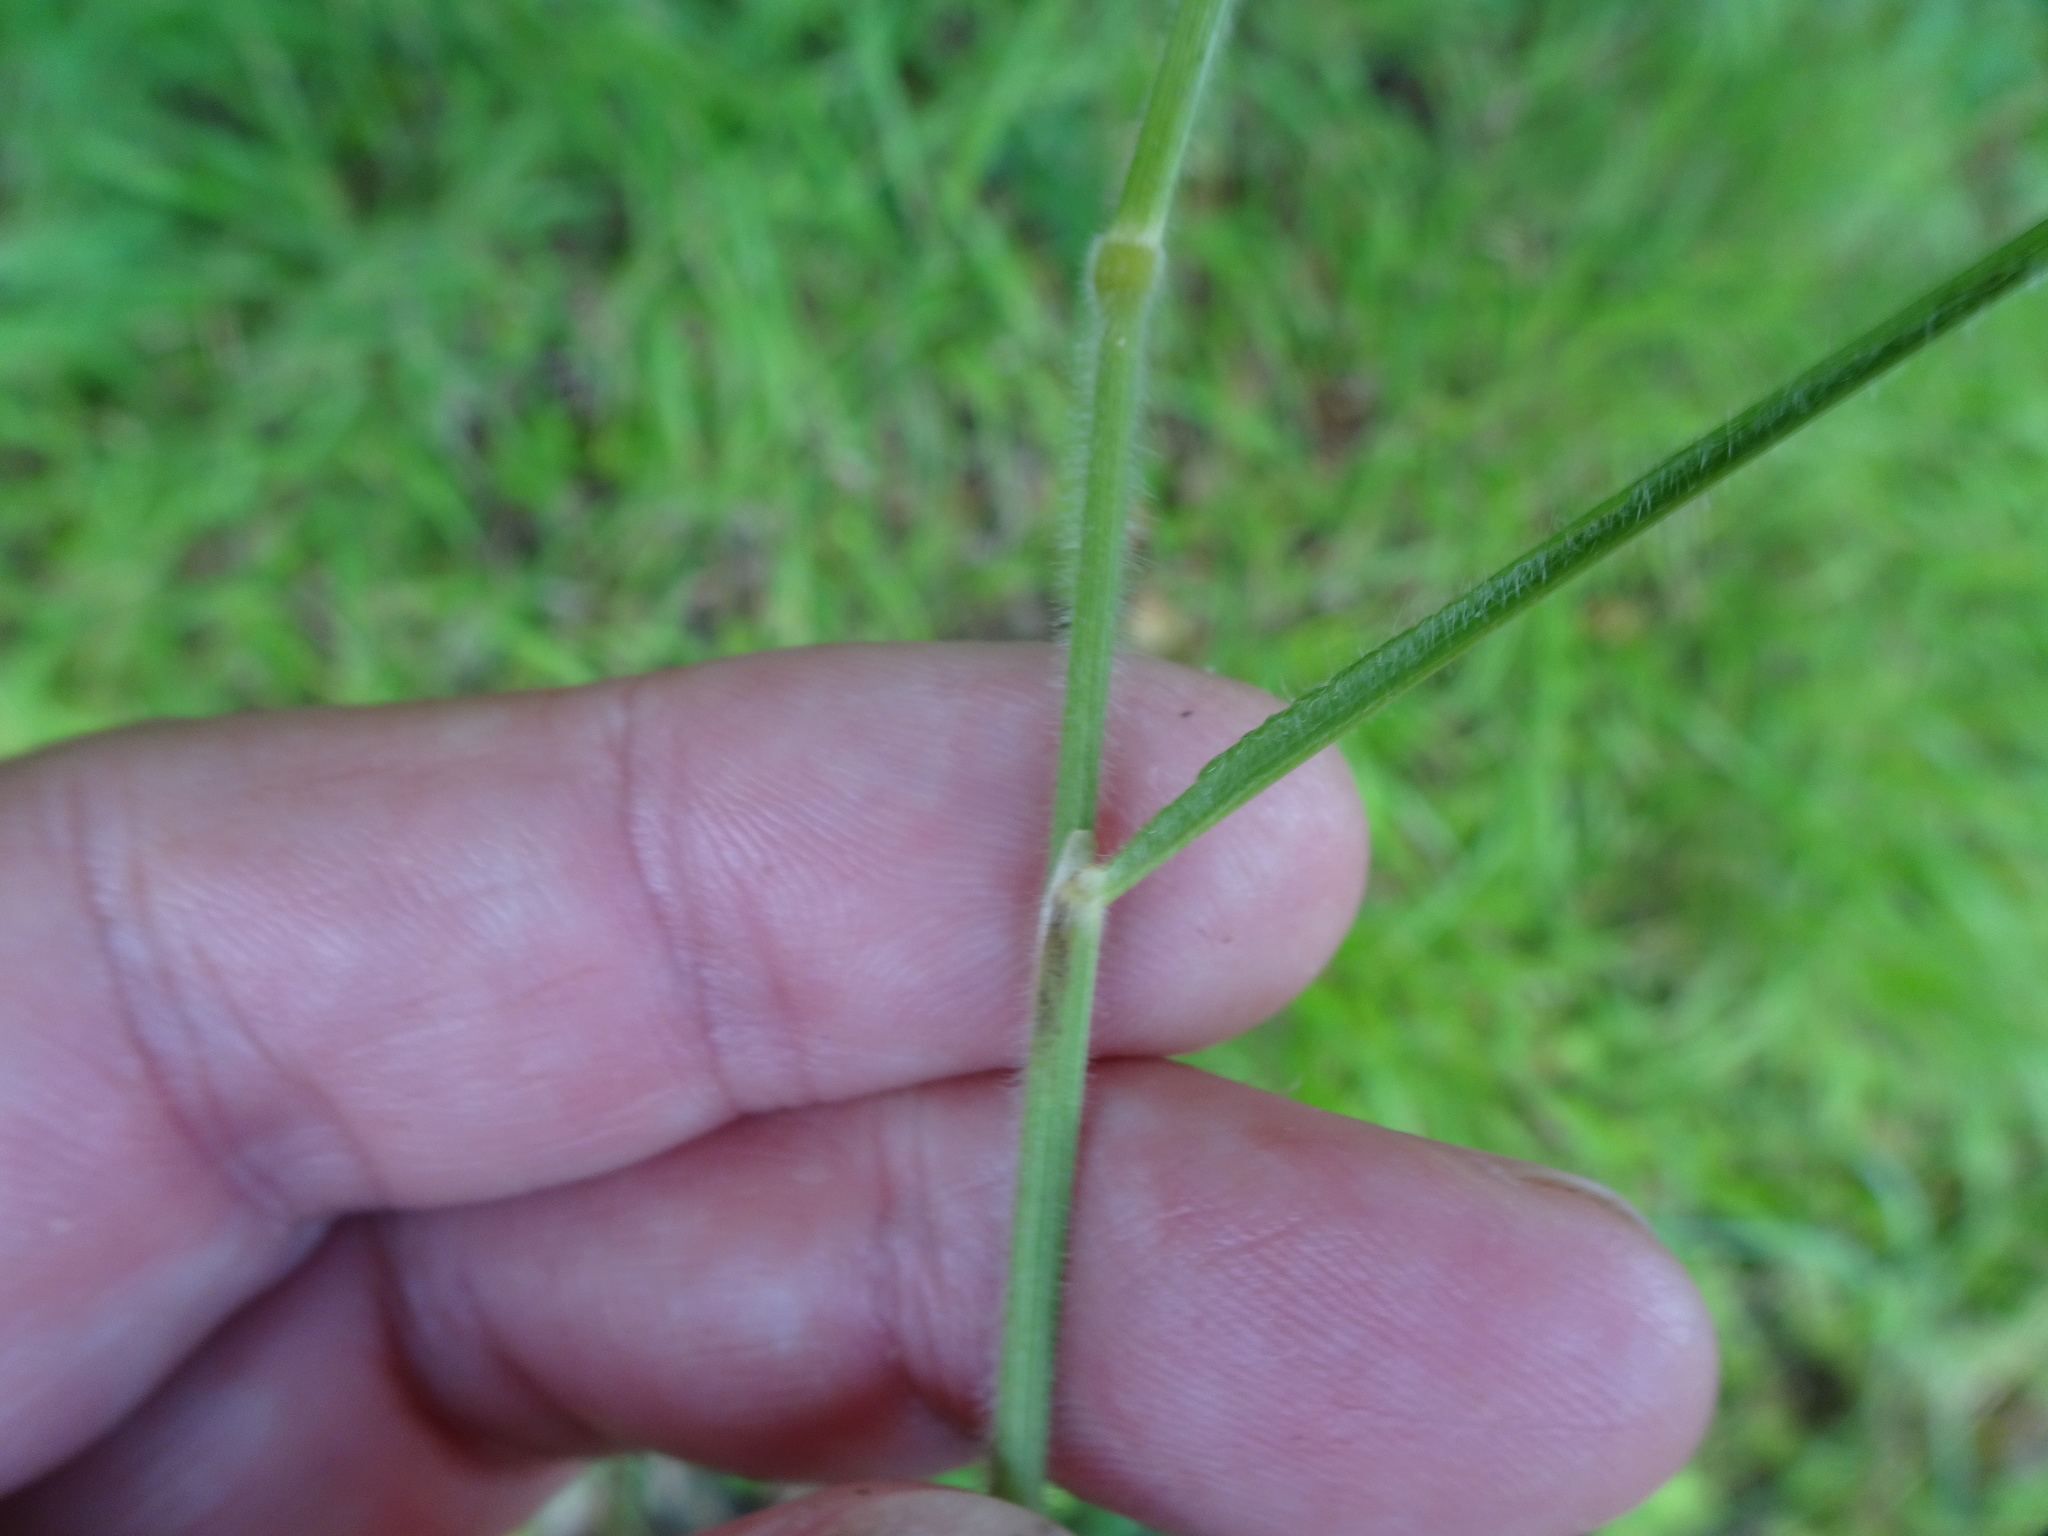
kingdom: Plantae
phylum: Tracheophyta
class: Liliopsida
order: Poales
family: Poaceae
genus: Brachypodium
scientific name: Brachypodium pinnatum
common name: Tor grass
